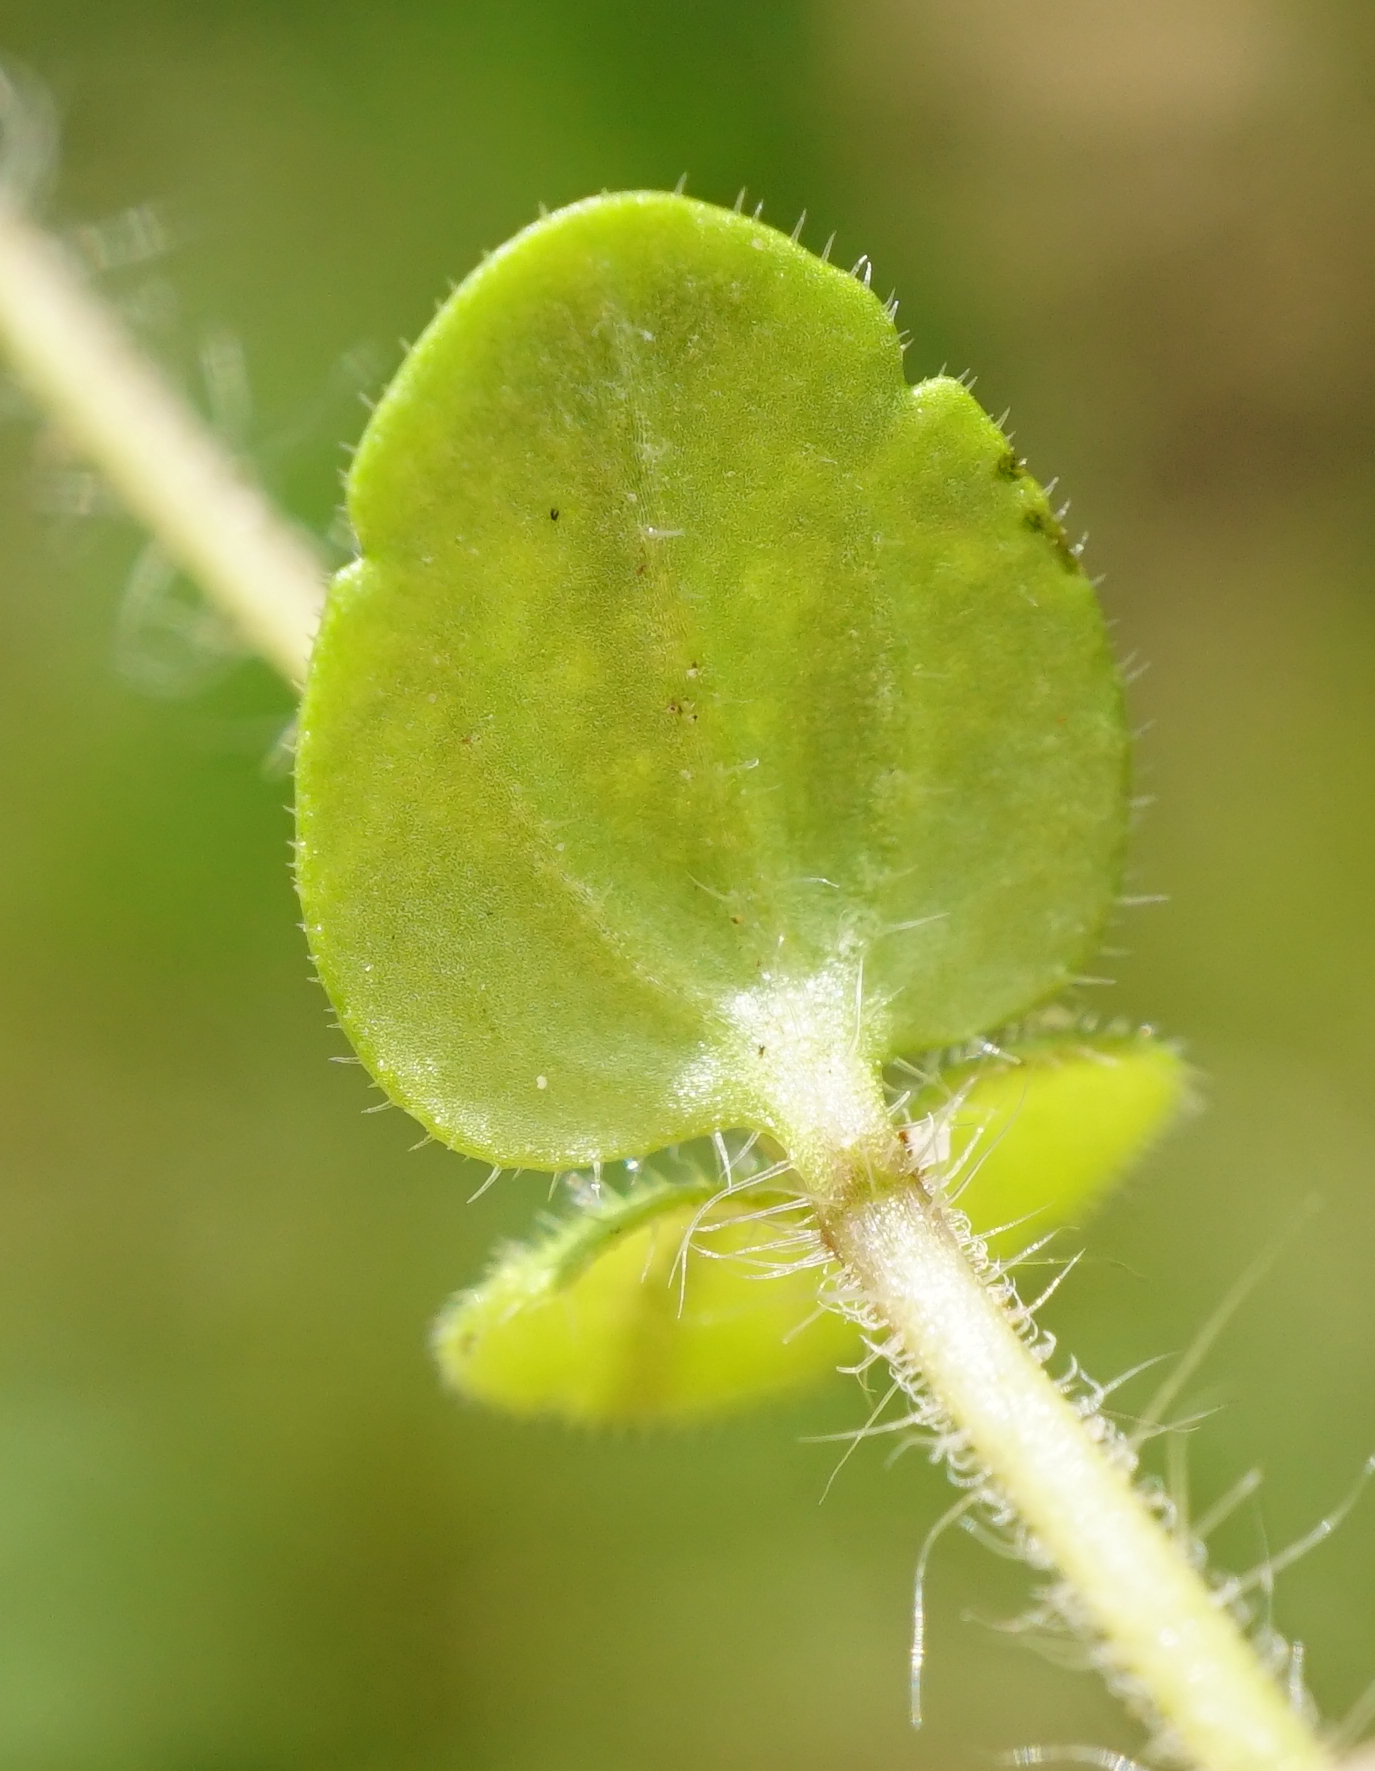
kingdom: Plantae
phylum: Tracheophyta
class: Magnoliopsida
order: Lamiales
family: Plantaginaceae
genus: Veronica
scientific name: Veronica arvensis
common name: Corn speedwell
